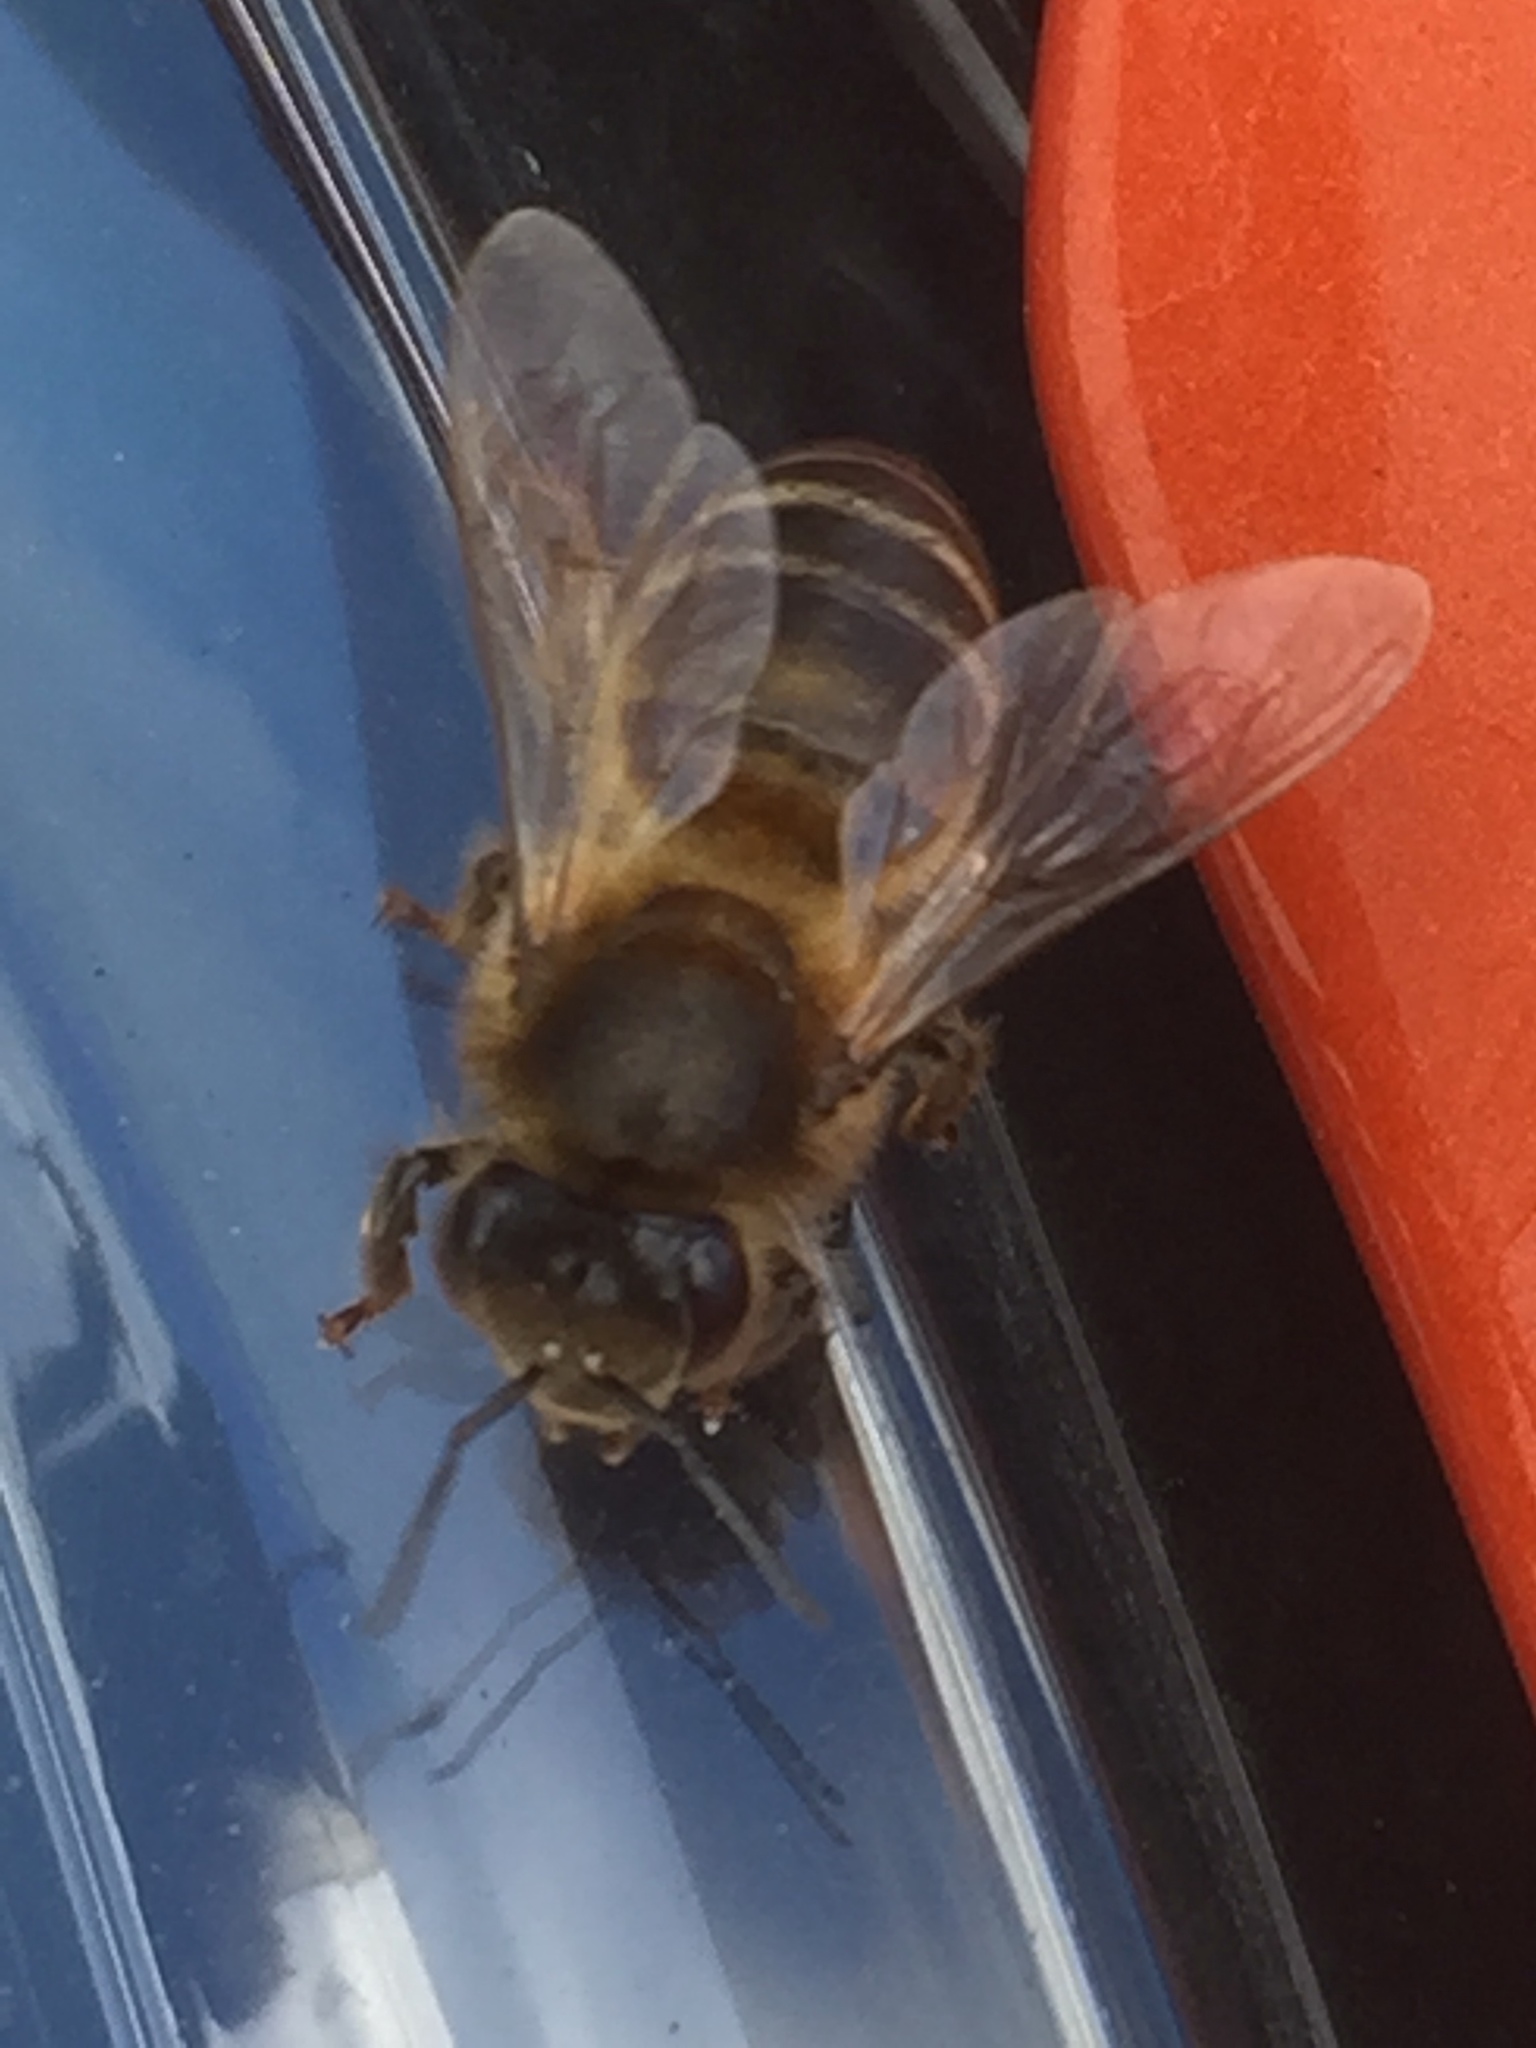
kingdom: Animalia
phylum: Arthropoda
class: Insecta
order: Hymenoptera
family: Apidae
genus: Apis
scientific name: Apis mellifera
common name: Honey bee
